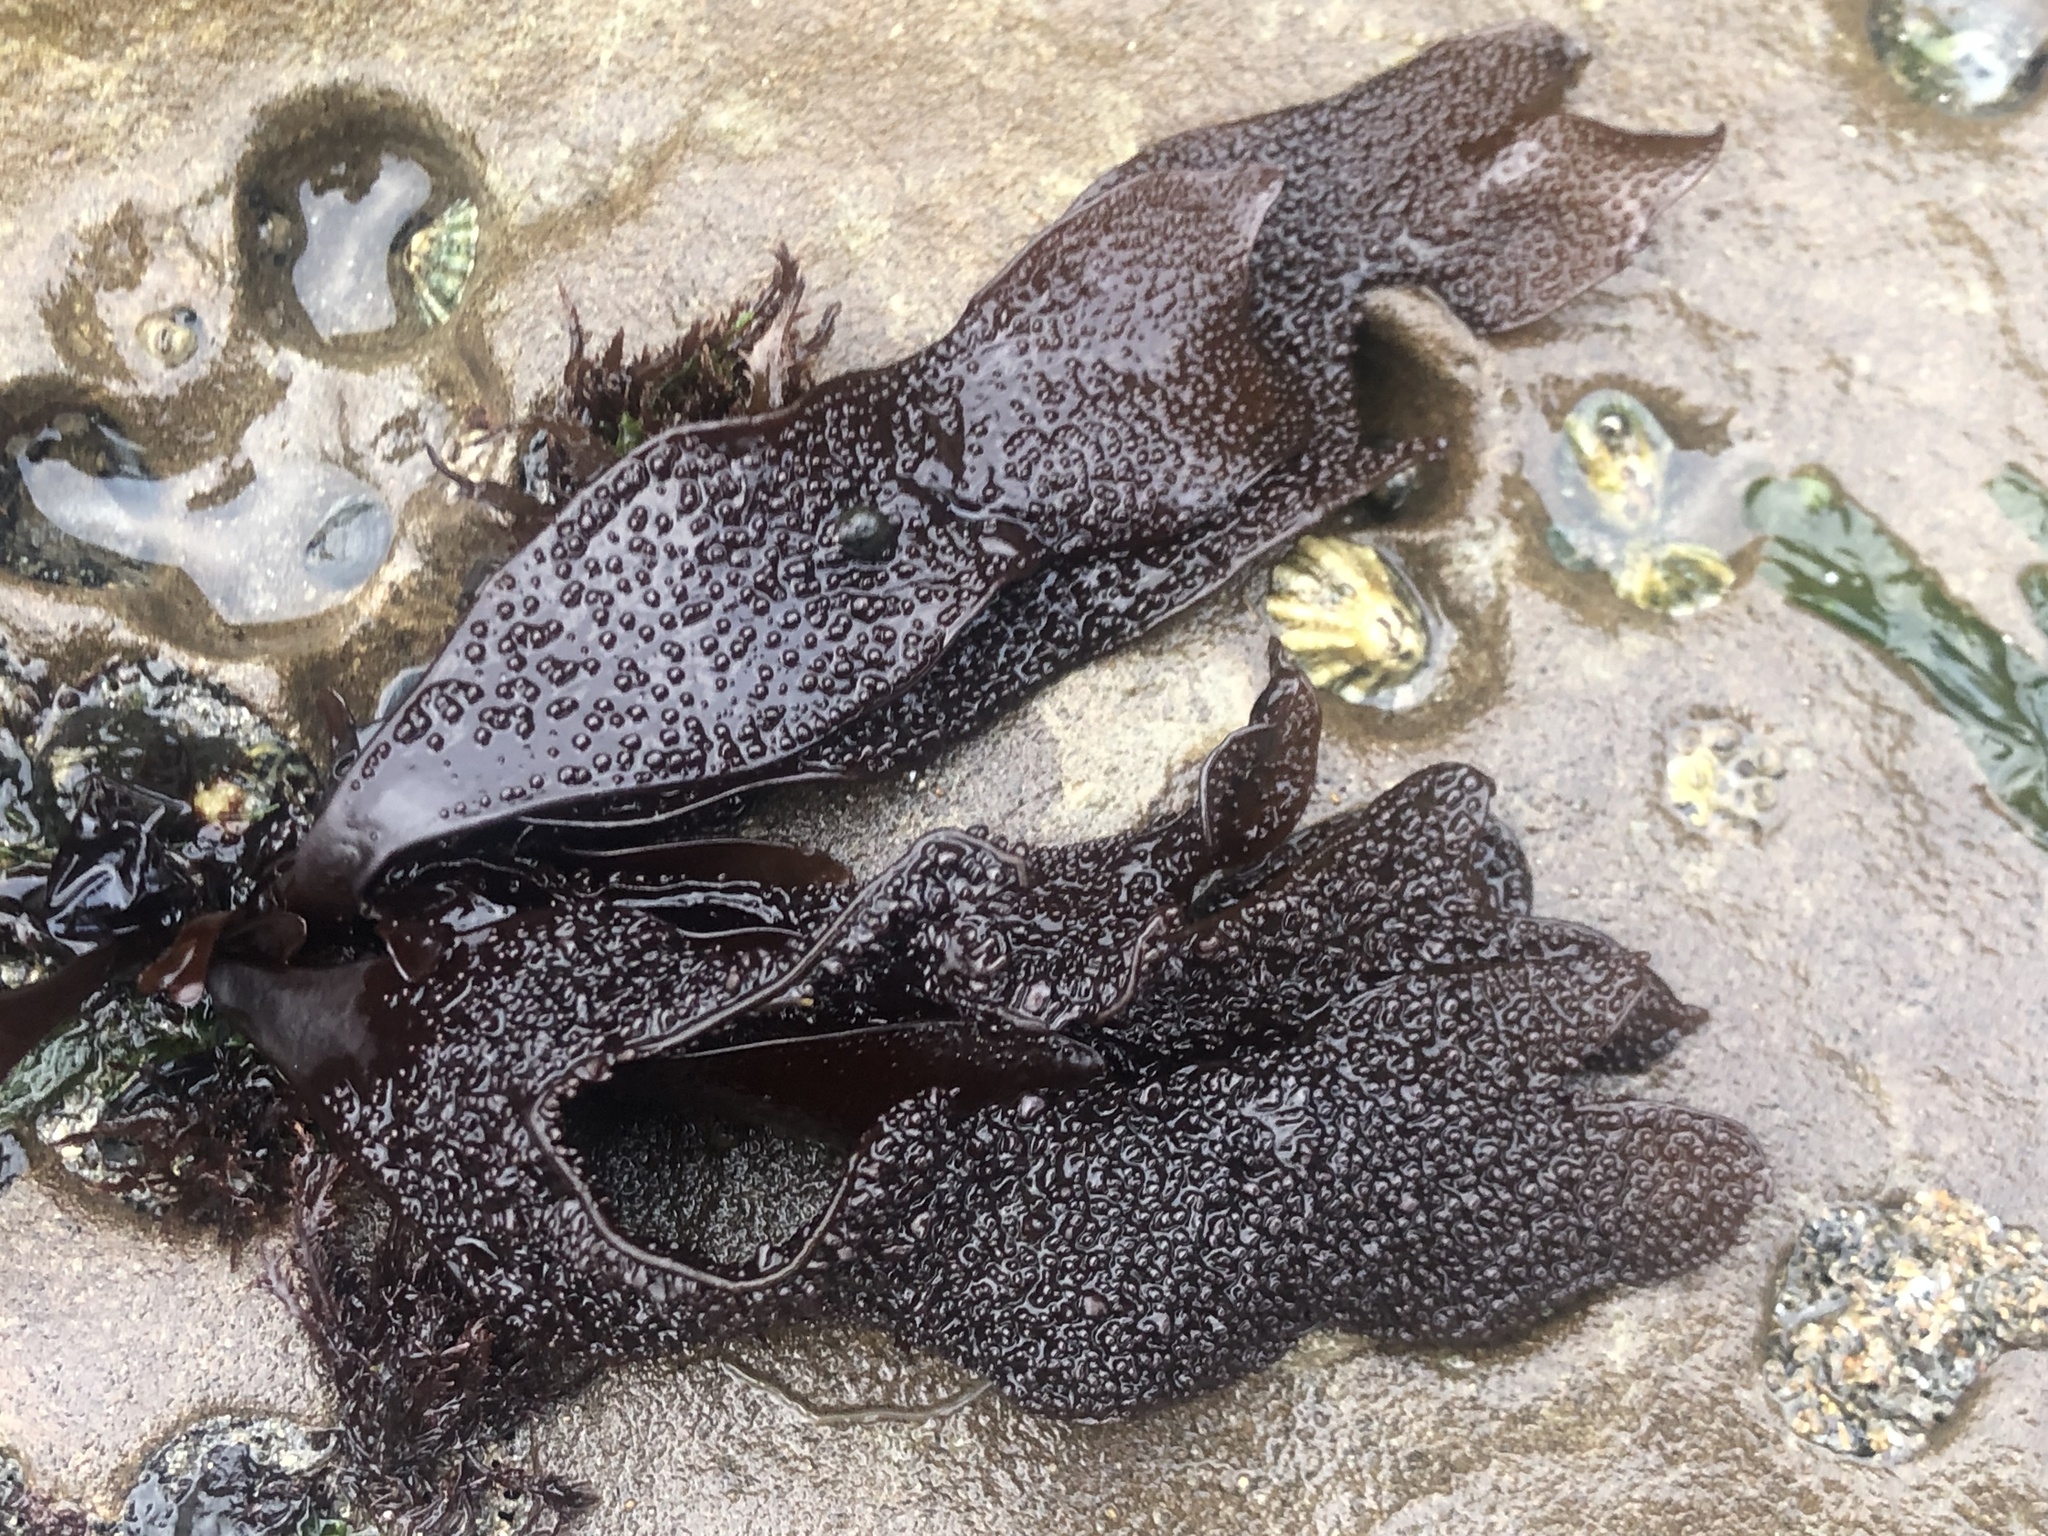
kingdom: Plantae
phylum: Rhodophyta
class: Florideophyceae
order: Gigartinales
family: Phyllophoraceae
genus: Mastocarpus
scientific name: Mastocarpus papillatus
